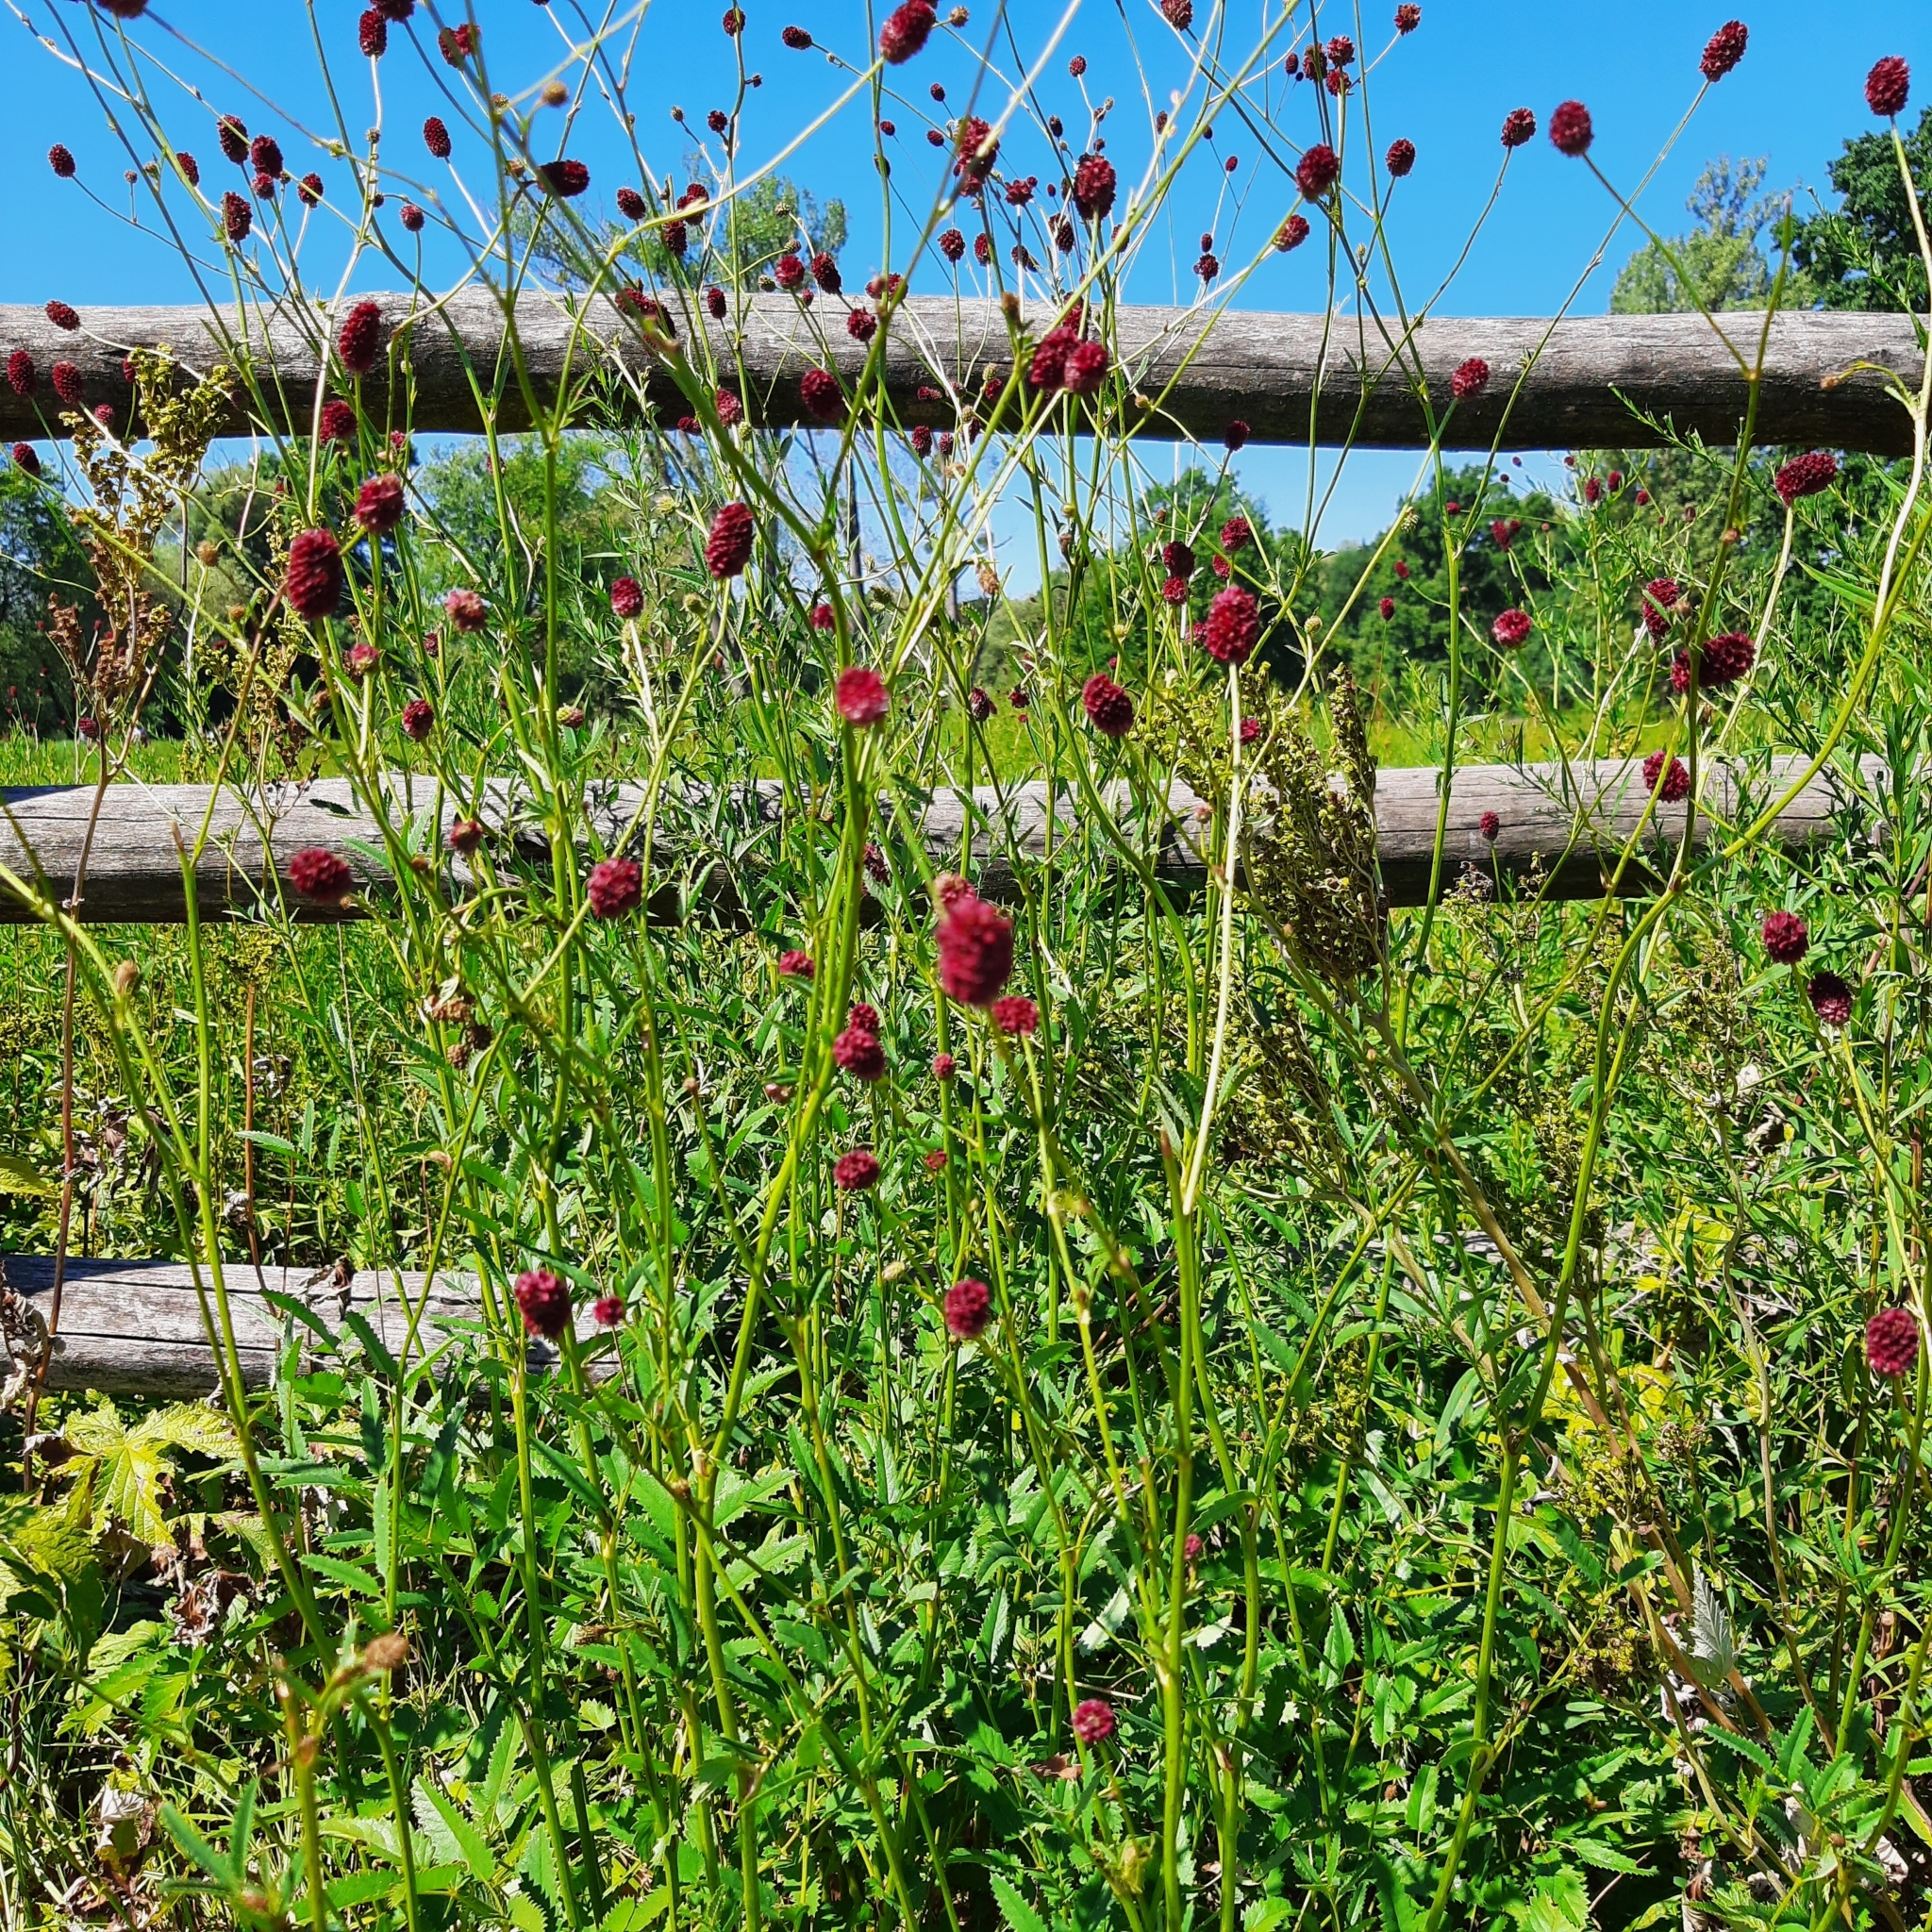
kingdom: Plantae
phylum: Tracheophyta
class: Magnoliopsida
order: Rosales
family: Rosaceae
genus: Sanguisorba
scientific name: Sanguisorba officinalis
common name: Great burnet
